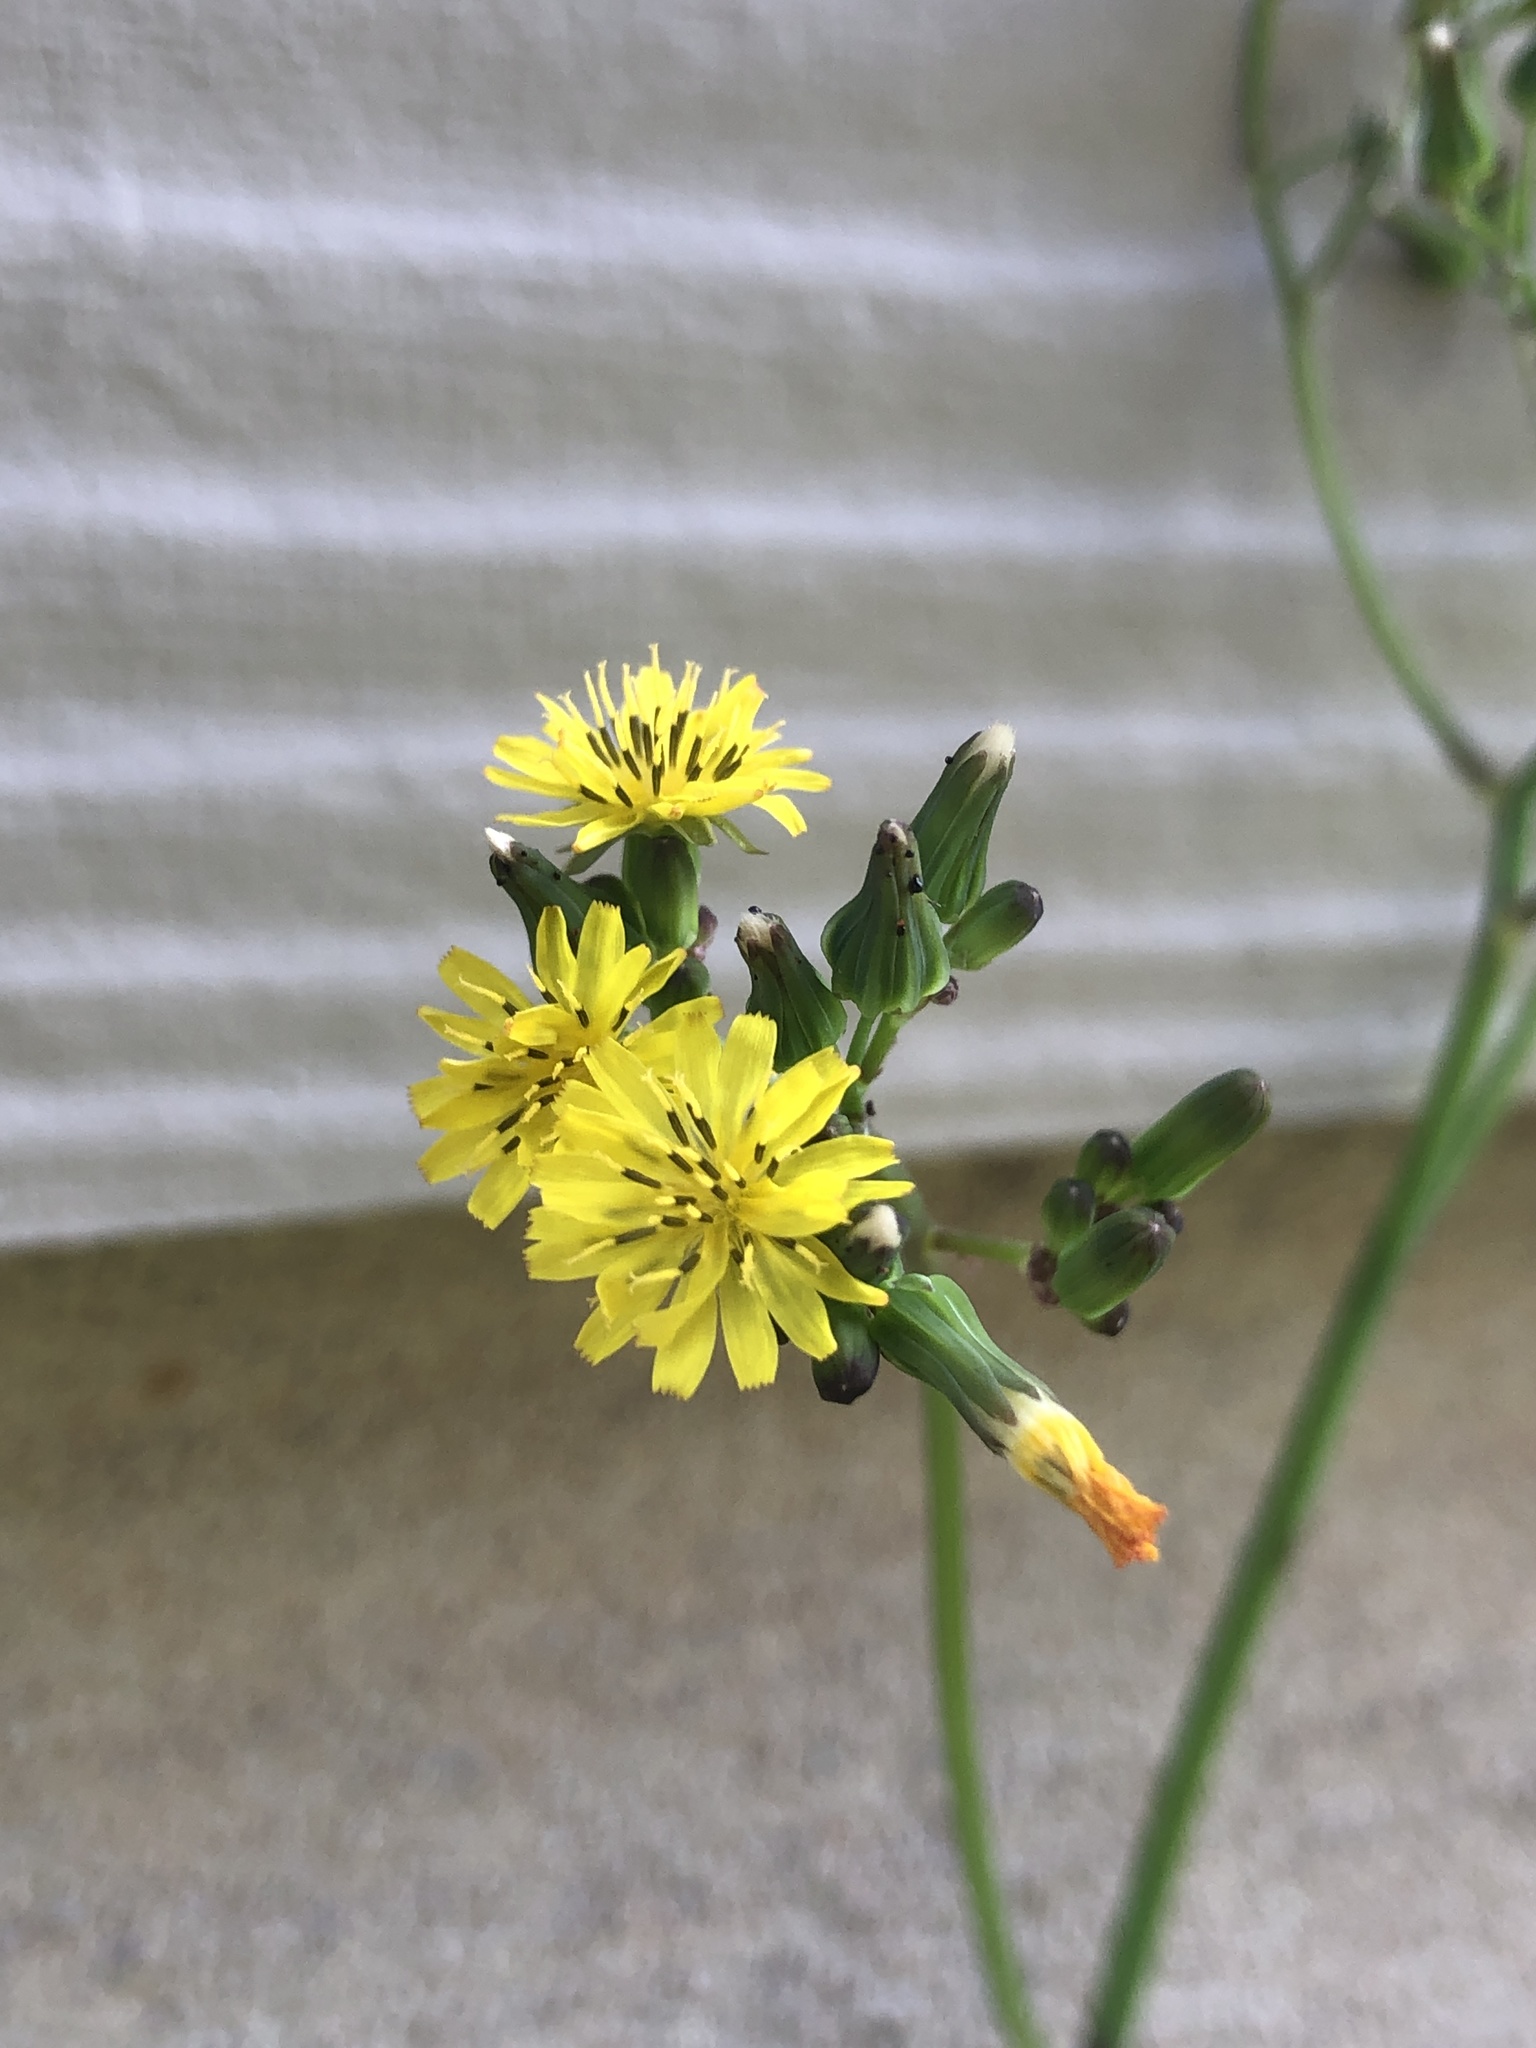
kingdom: Plantae
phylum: Tracheophyta
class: Magnoliopsida
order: Asterales
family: Asteraceae
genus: Youngia
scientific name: Youngia japonica
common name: Oriental false hawksbeard
